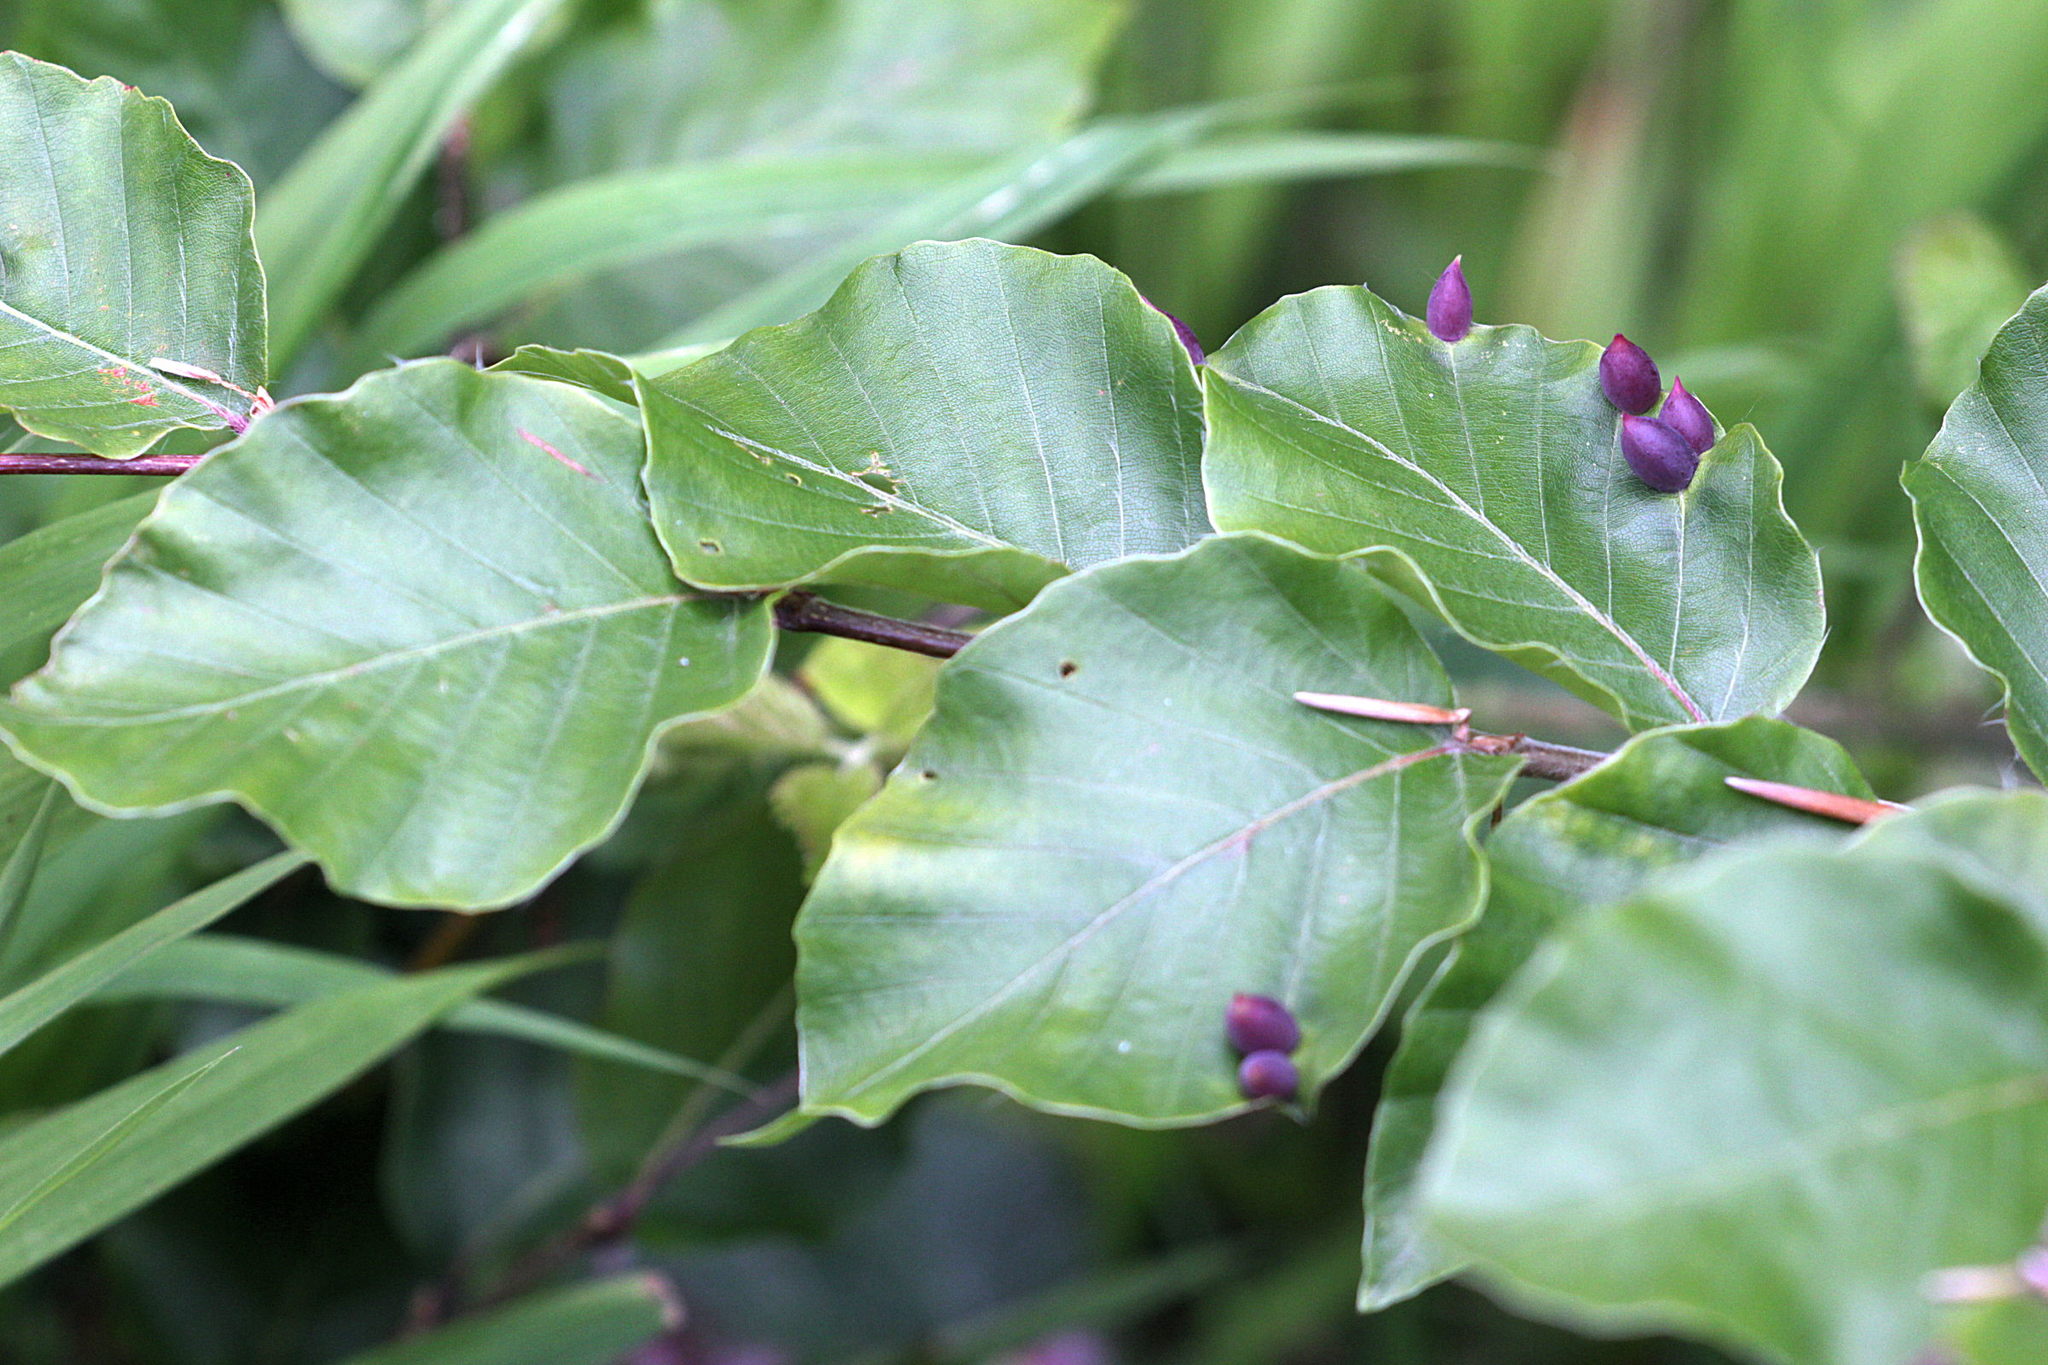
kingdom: Animalia
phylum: Arthropoda
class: Insecta
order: Diptera
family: Cecidomyiidae
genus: Mikiola
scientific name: Mikiola fagi
